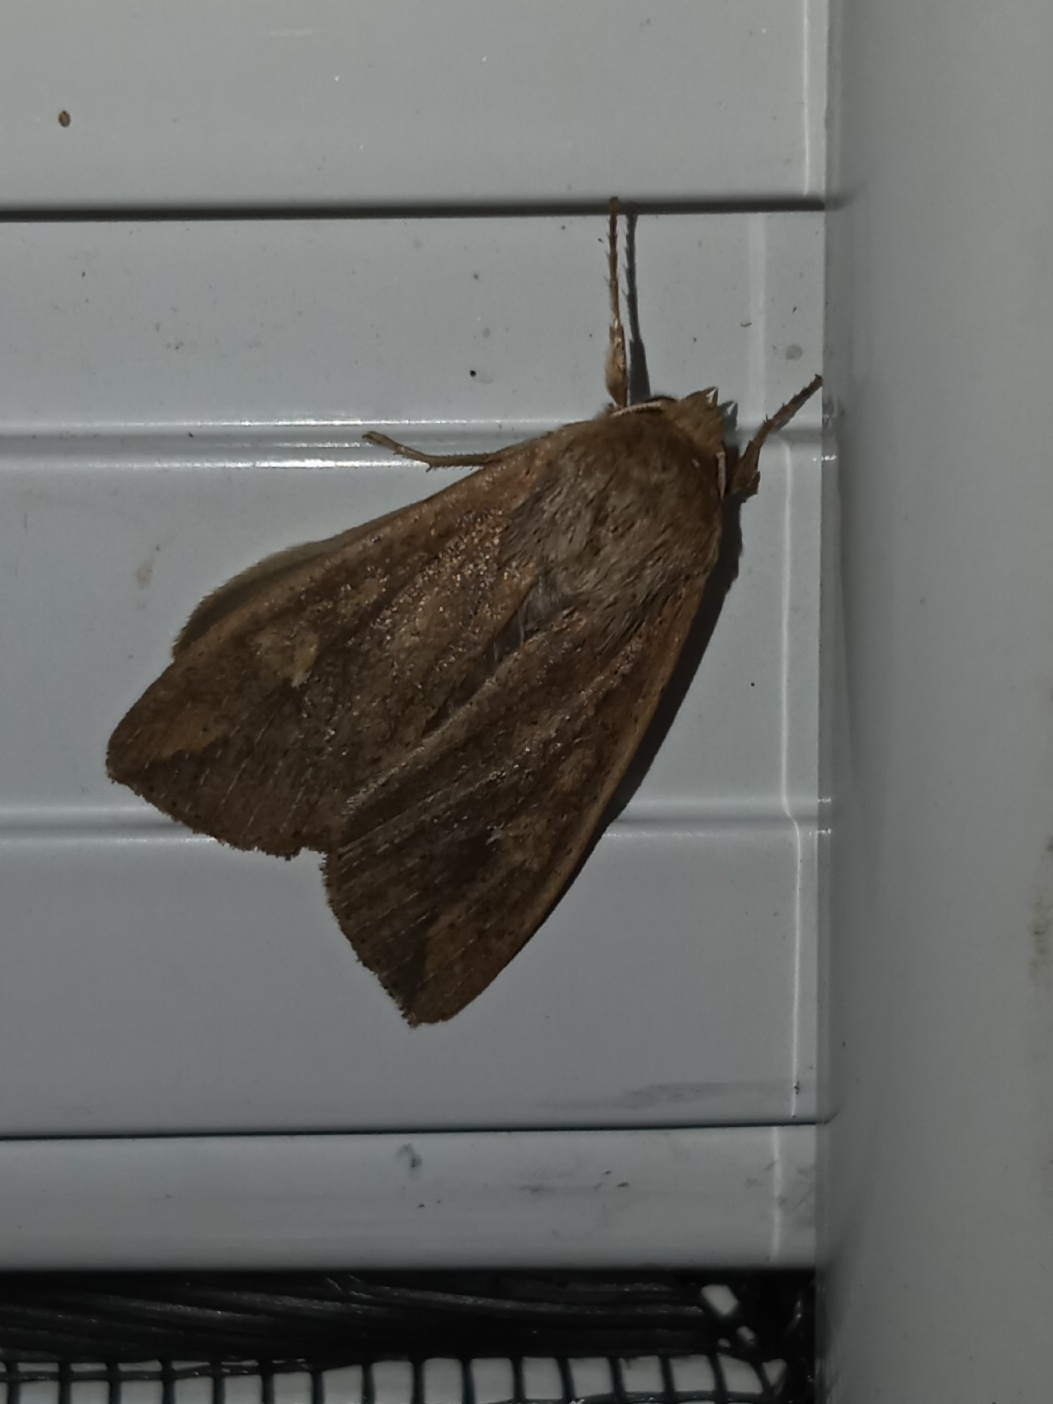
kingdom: Animalia
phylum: Arthropoda
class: Insecta
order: Lepidoptera
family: Noctuidae
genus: Mythimna
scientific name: Mythimna unipuncta
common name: White-speck
